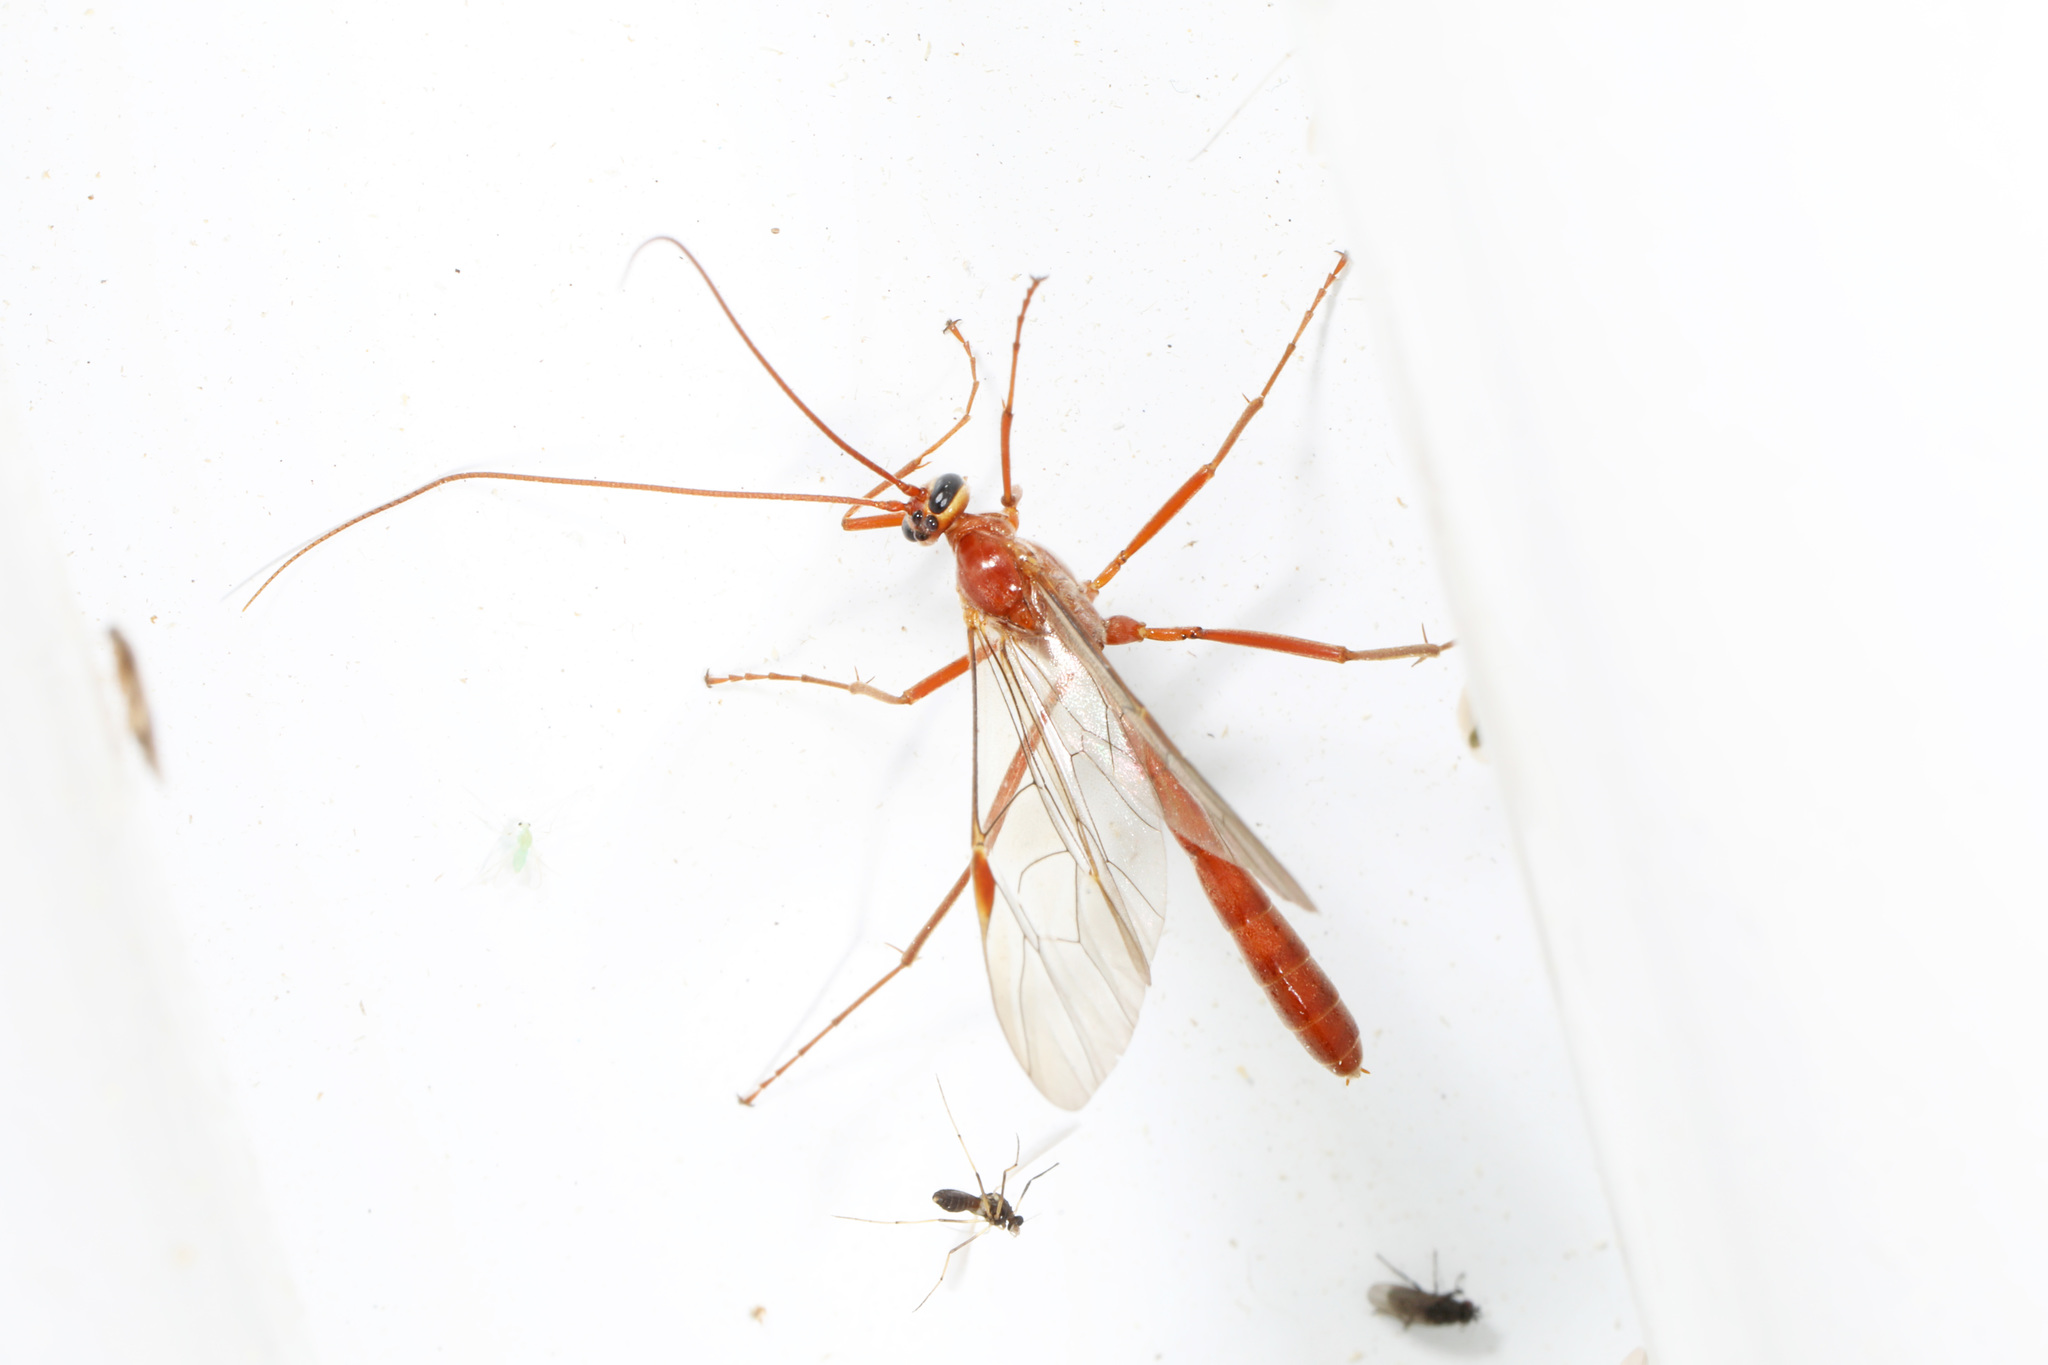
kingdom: Animalia
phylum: Arthropoda
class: Insecta
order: Hymenoptera
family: Ichneumonidae
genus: Ophion
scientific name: Ophion
